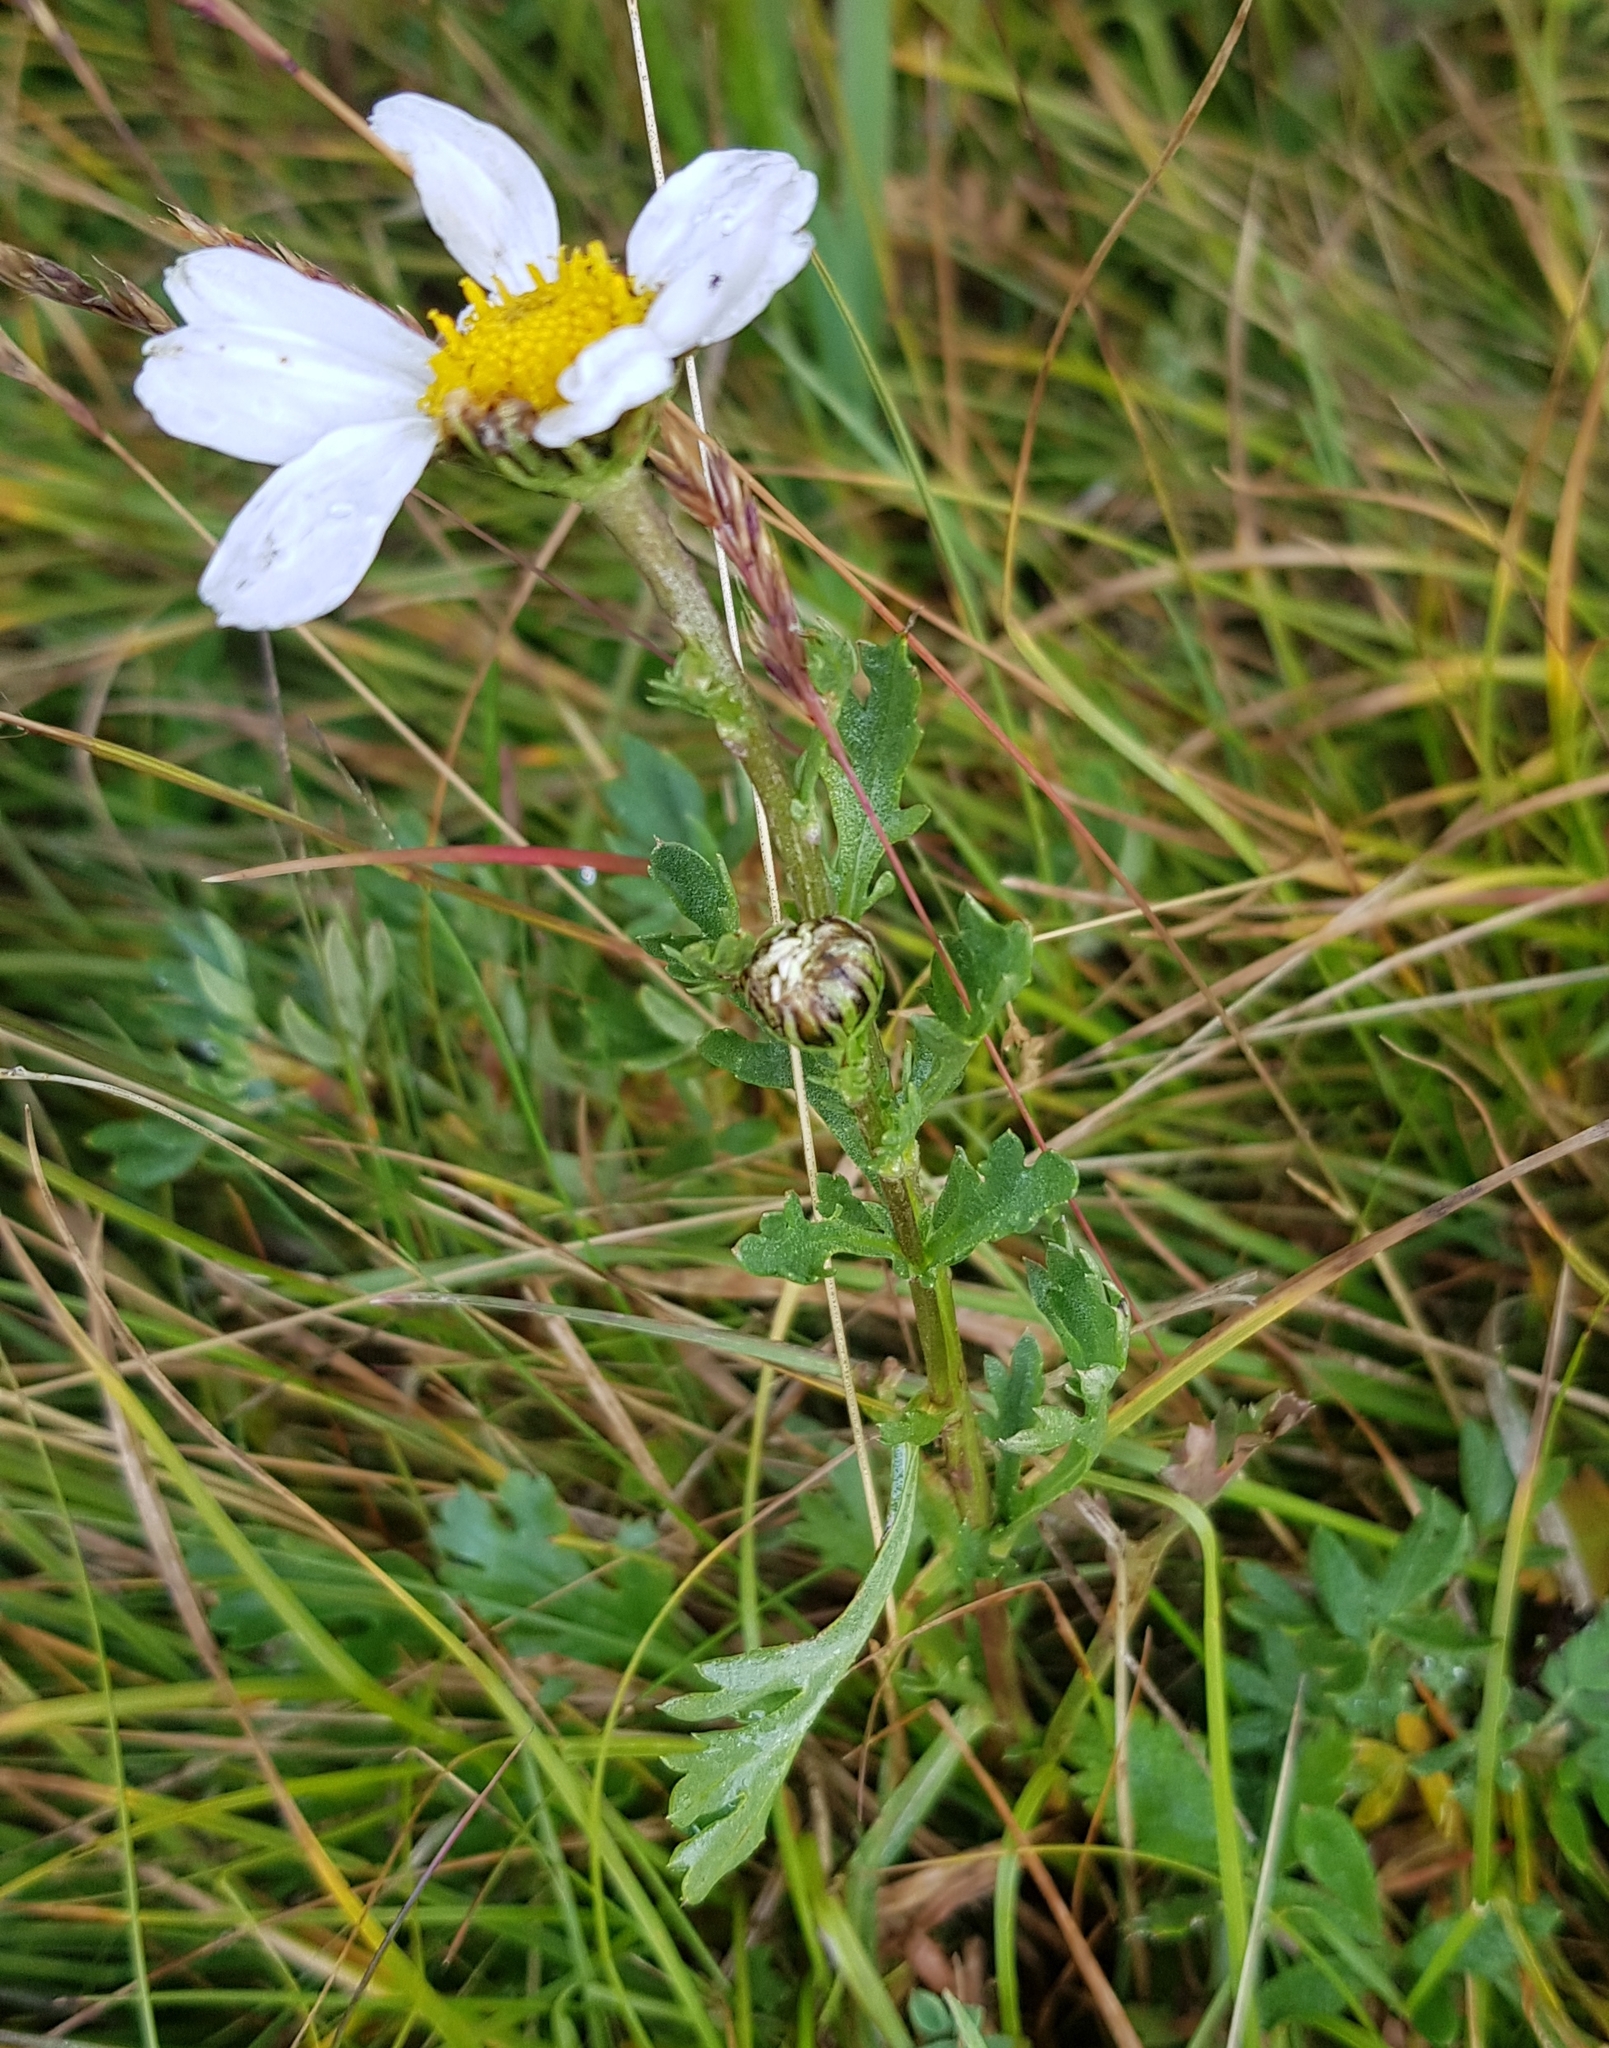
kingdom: Plantae
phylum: Tracheophyta
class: Magnoliopsida
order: Asterales
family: Asteraceae
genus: Arctanthemum
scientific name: Arctanthemum kurilense
